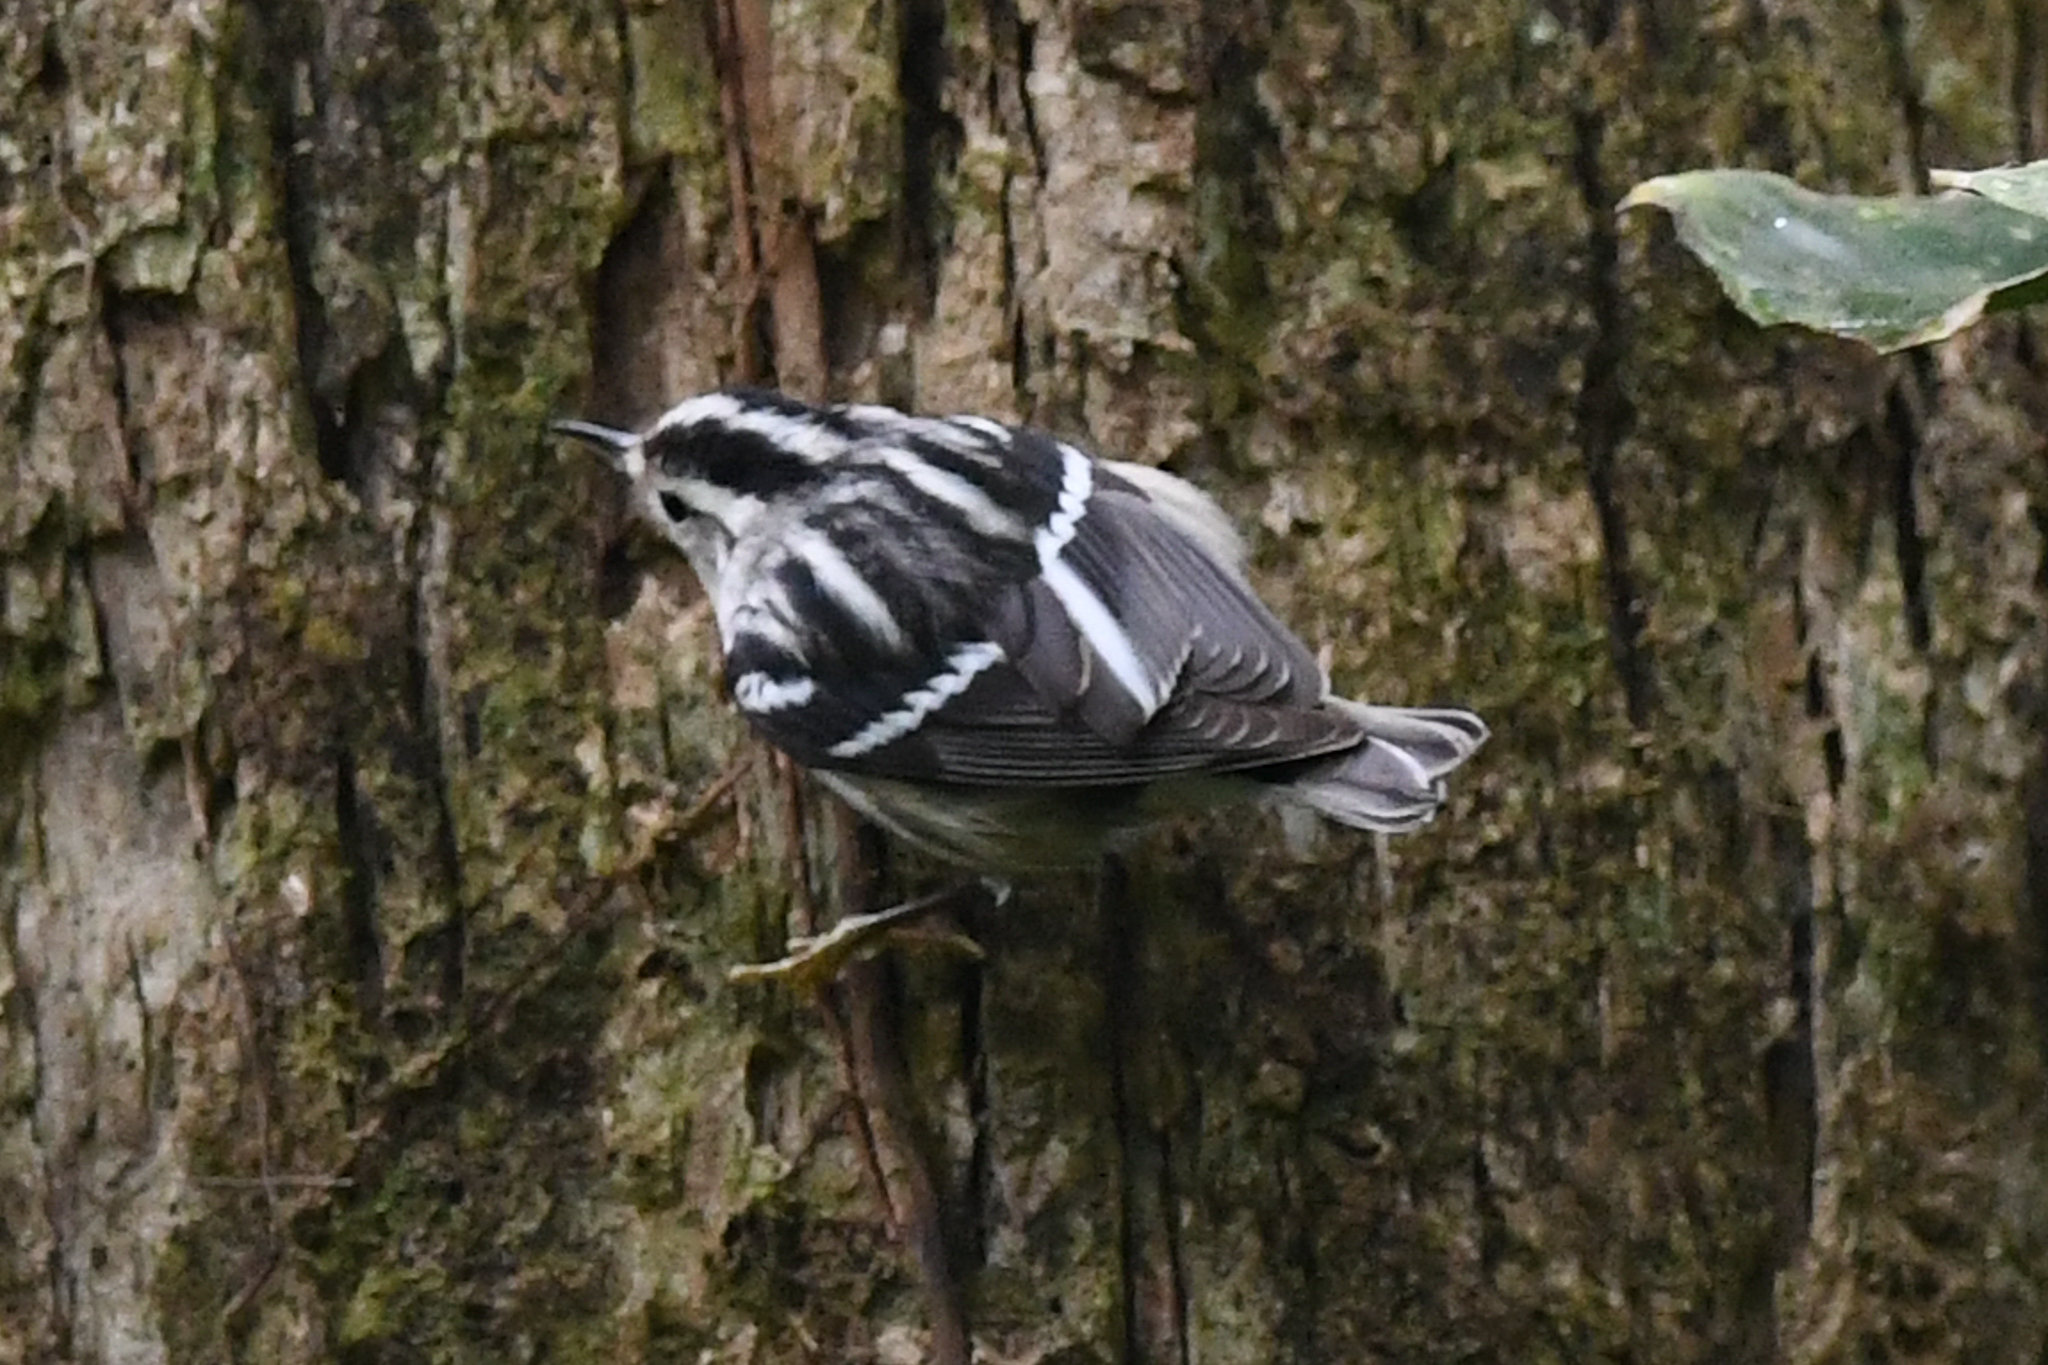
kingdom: Animalia
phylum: Chordata
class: Aves
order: Passeriformes
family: Parulidae
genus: Mniotilta
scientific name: Mniotilta varia
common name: Black-and-white warbler
